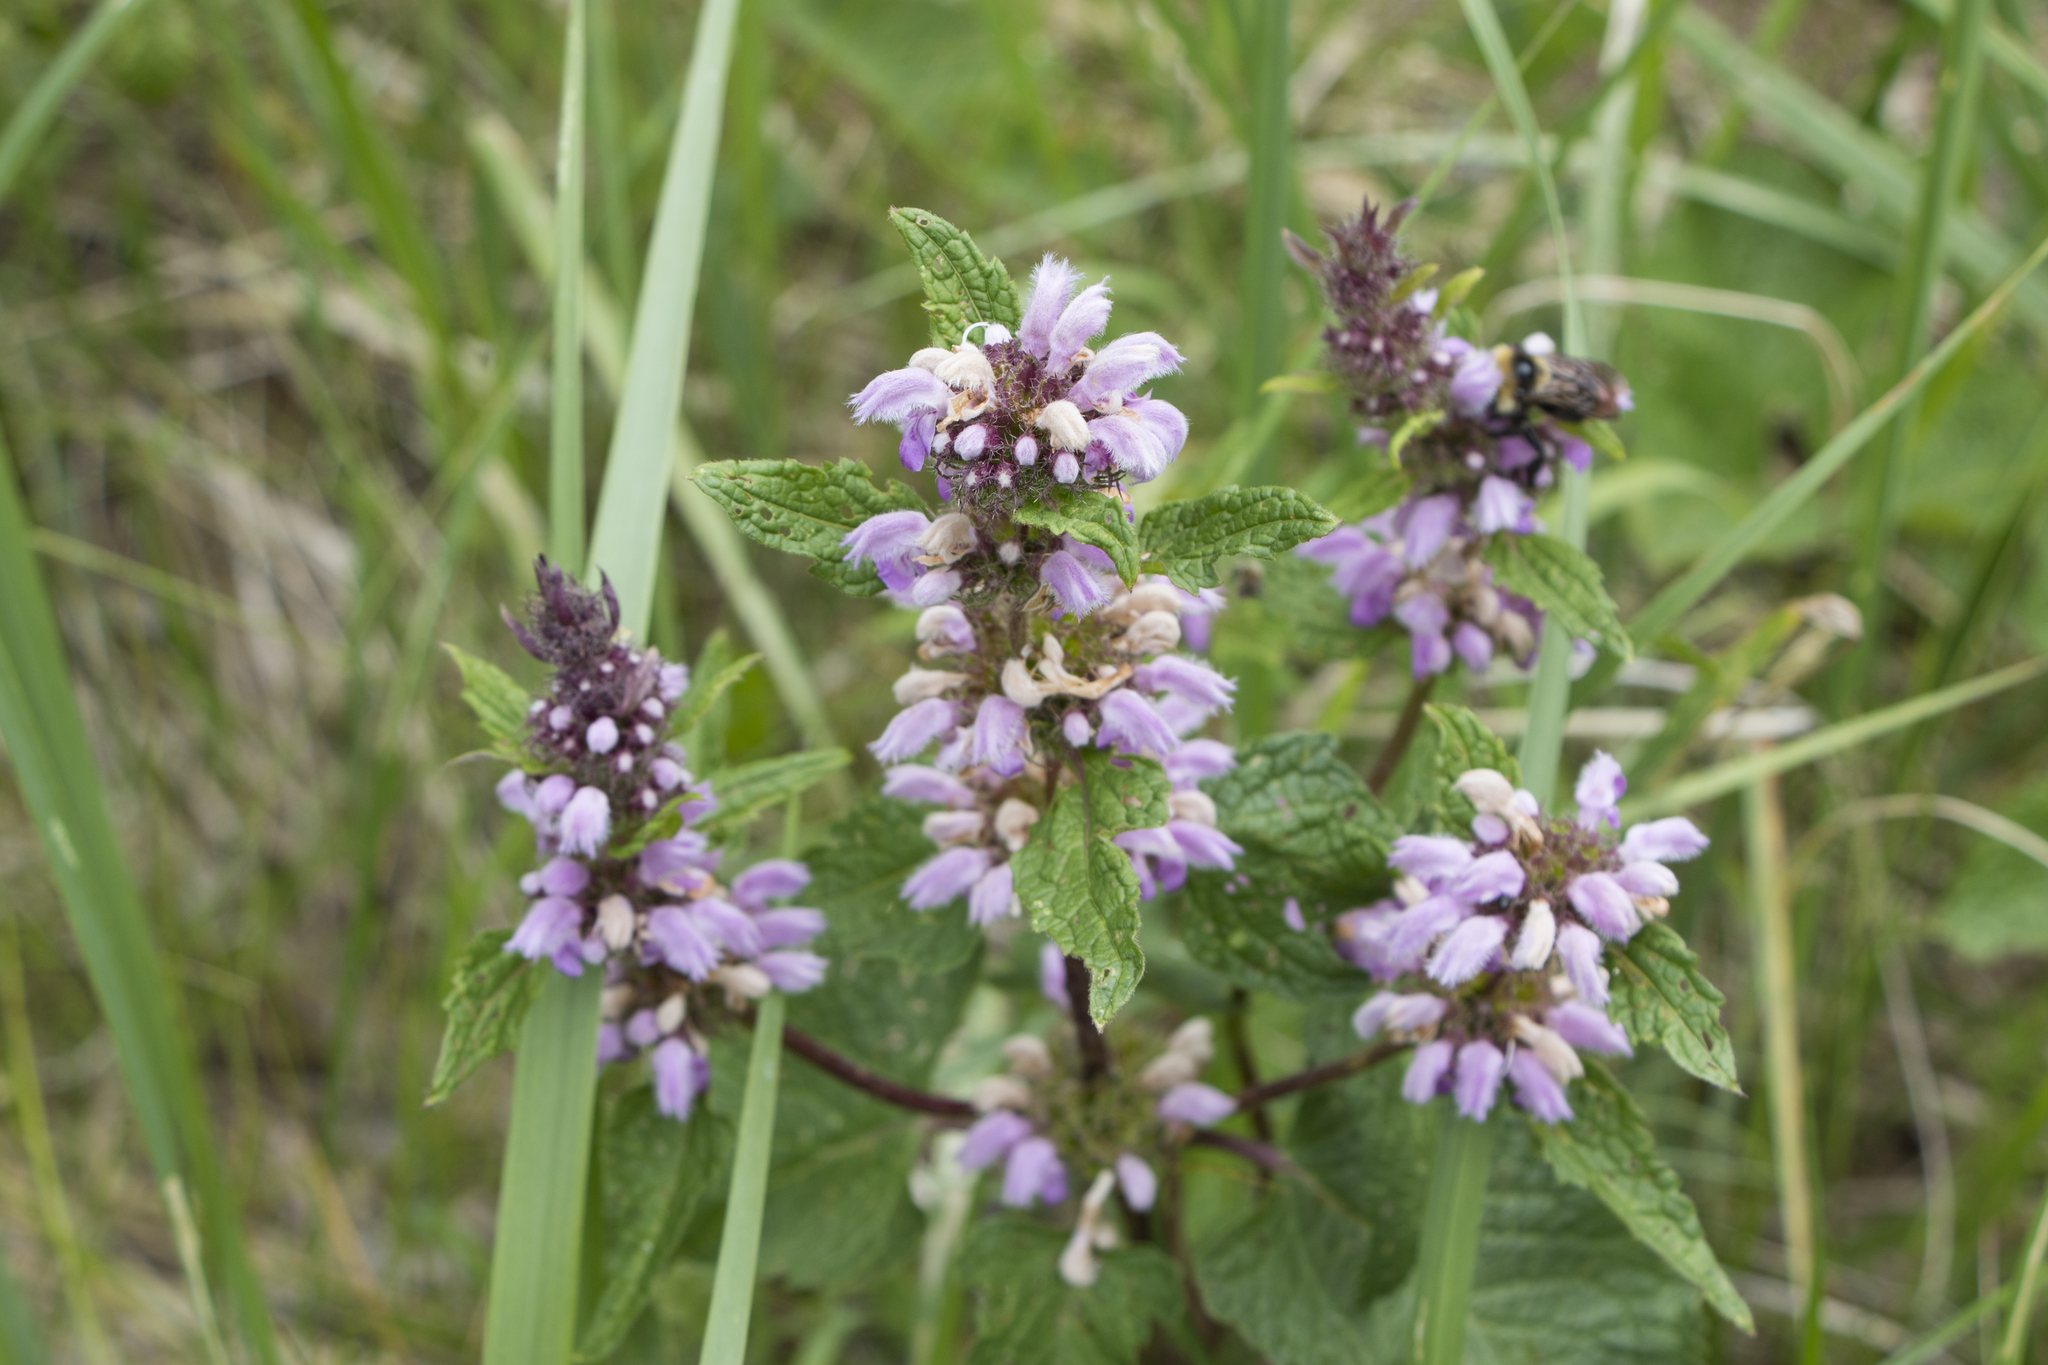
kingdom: Plantae
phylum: Tracheophyta
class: Magnoliopsida
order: Lamiales
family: Lamiaceae
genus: Phlomoides
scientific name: Phlomoides tuberosa
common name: Tuberous jerusalem sage
